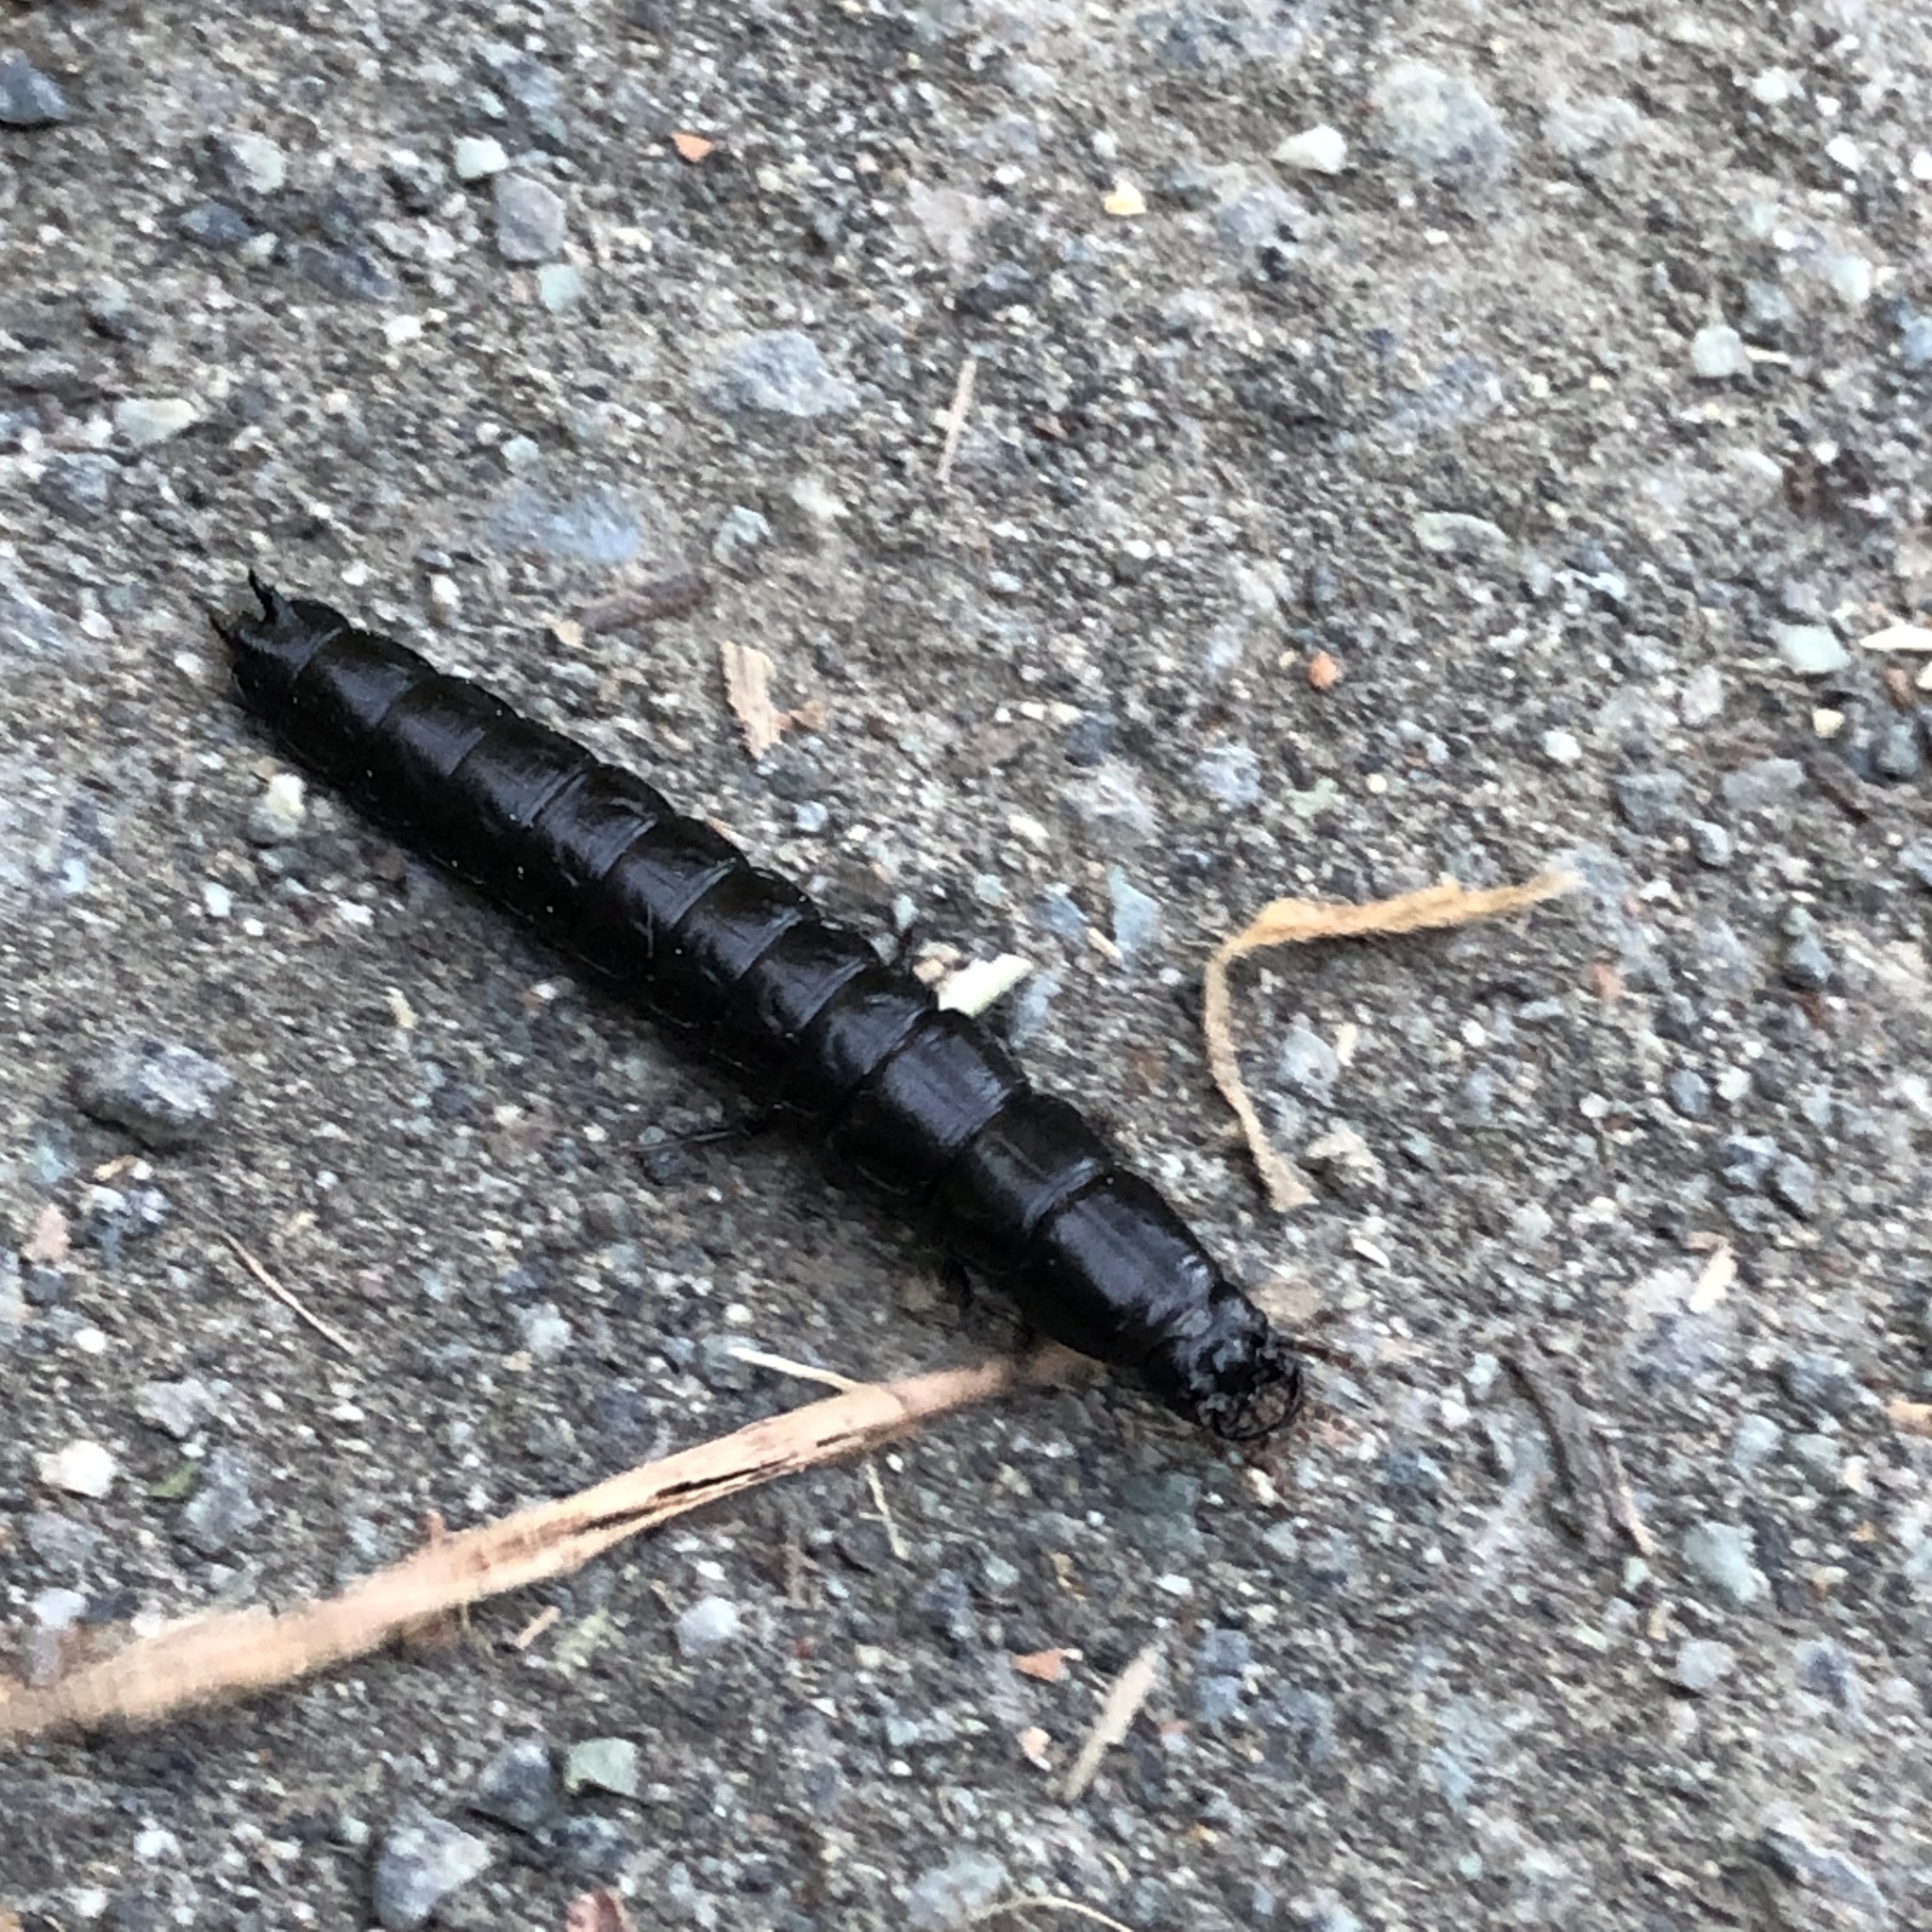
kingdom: Animalia
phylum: Arthropoda
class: Insecta
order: Coleoptera
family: Carabidae
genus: Carabus
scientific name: Carabus
